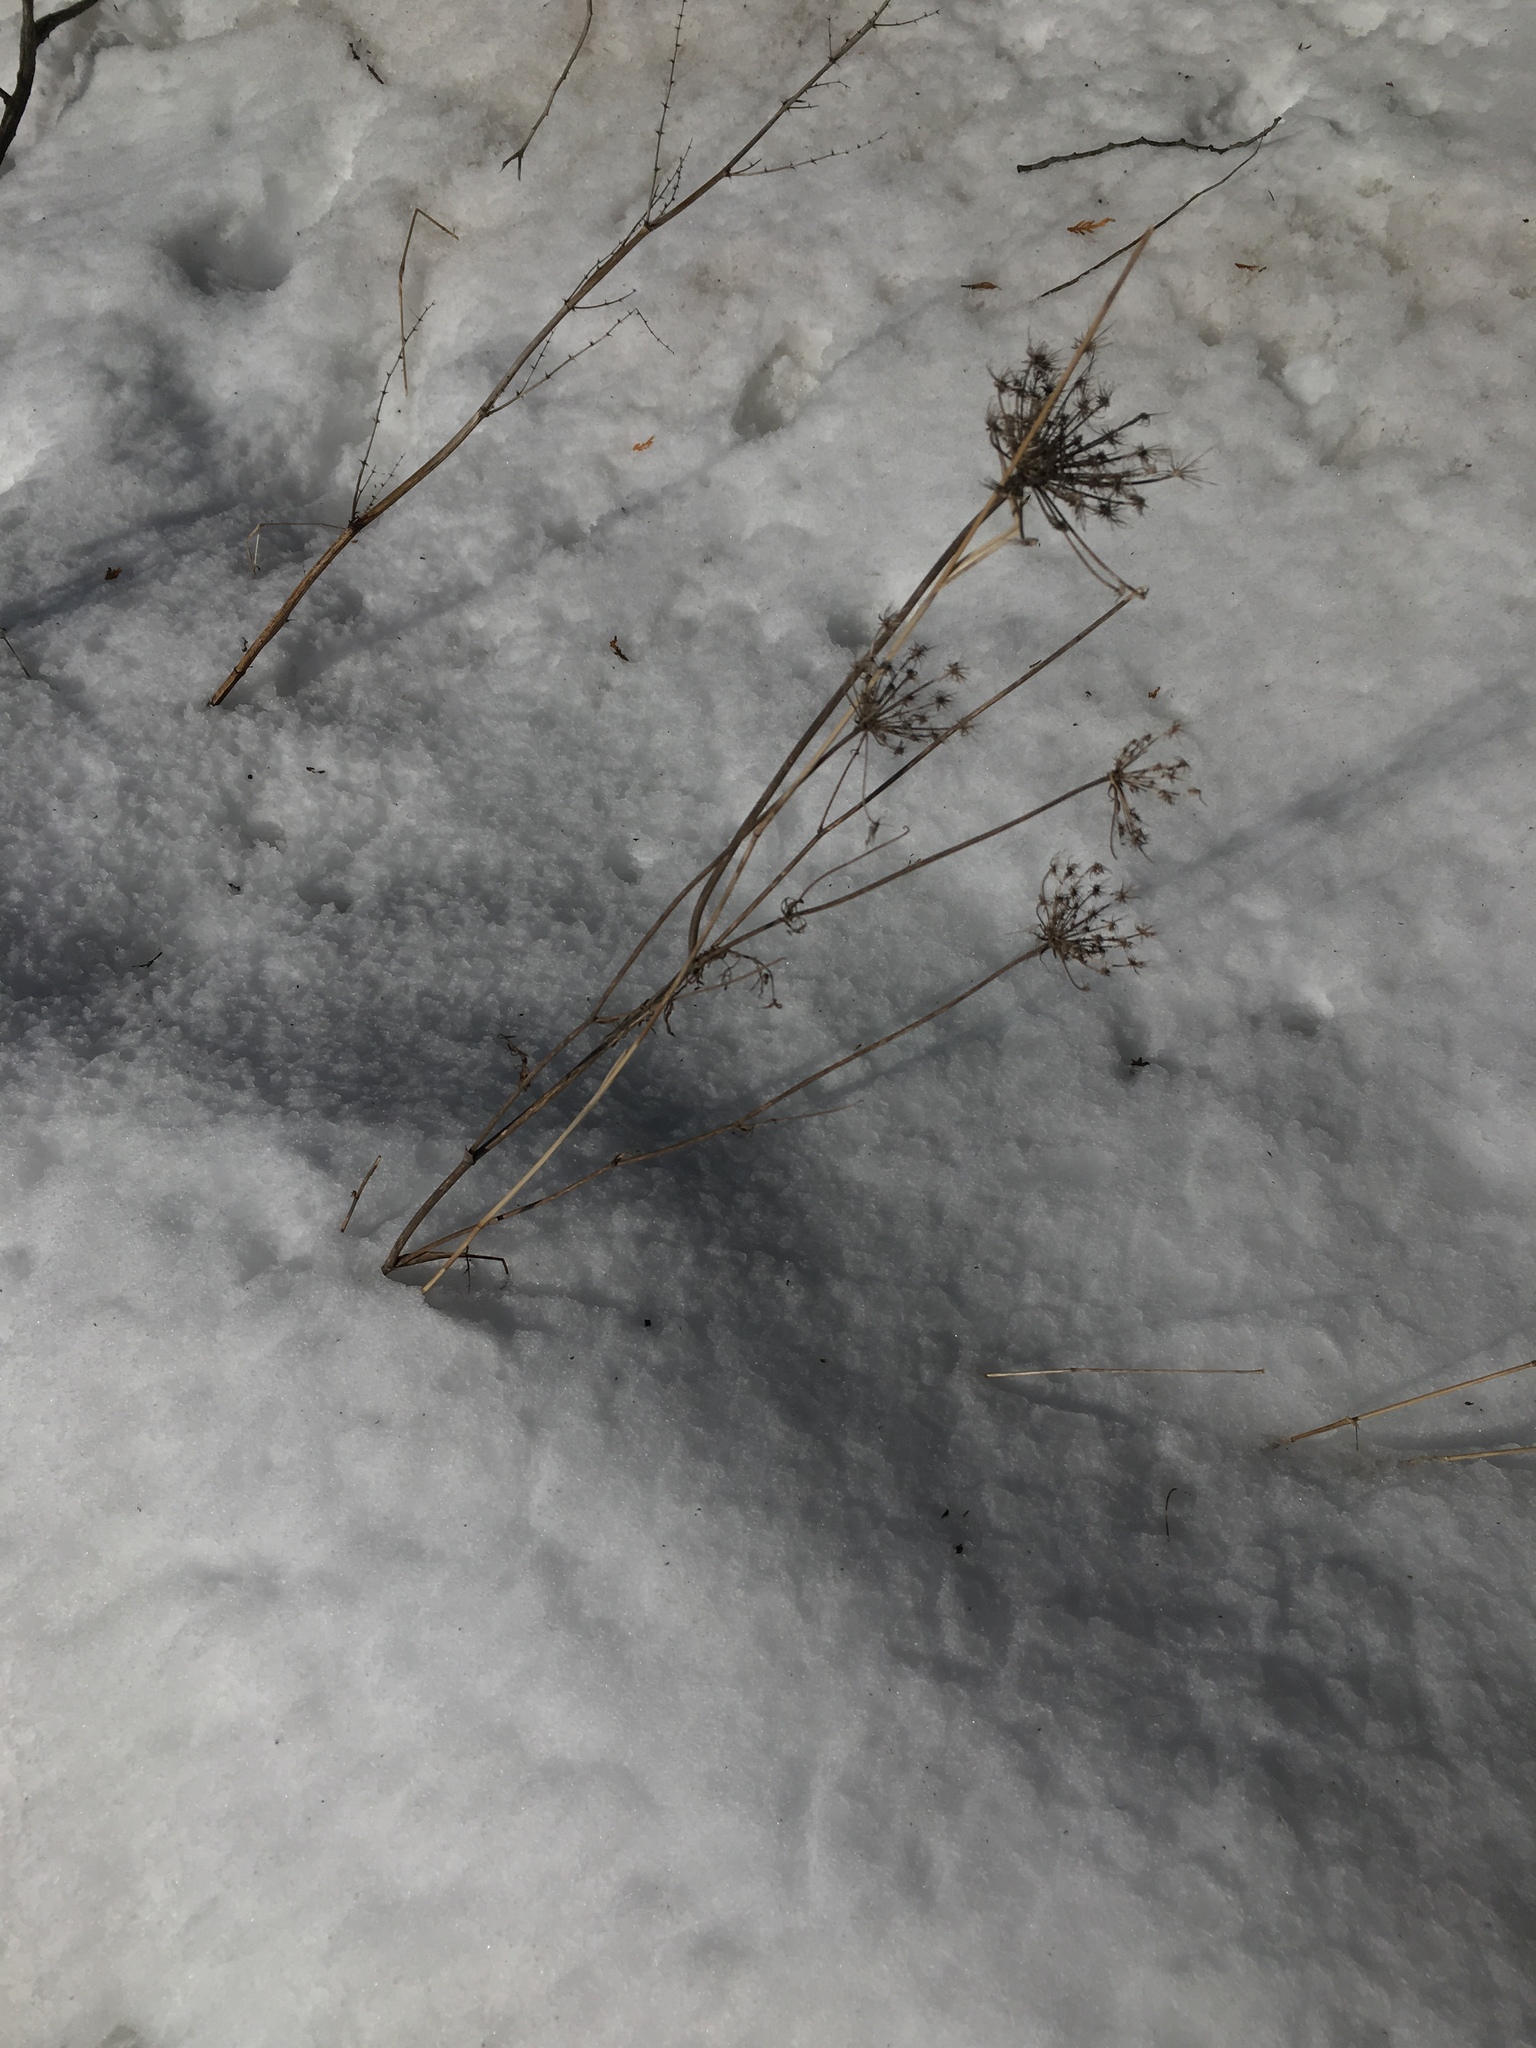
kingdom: Plantae
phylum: Tracheophyta
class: Magnoliopsida
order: Apiales
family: Apiaceae
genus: Daucus
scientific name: Daucus carota
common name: Wild carrot
